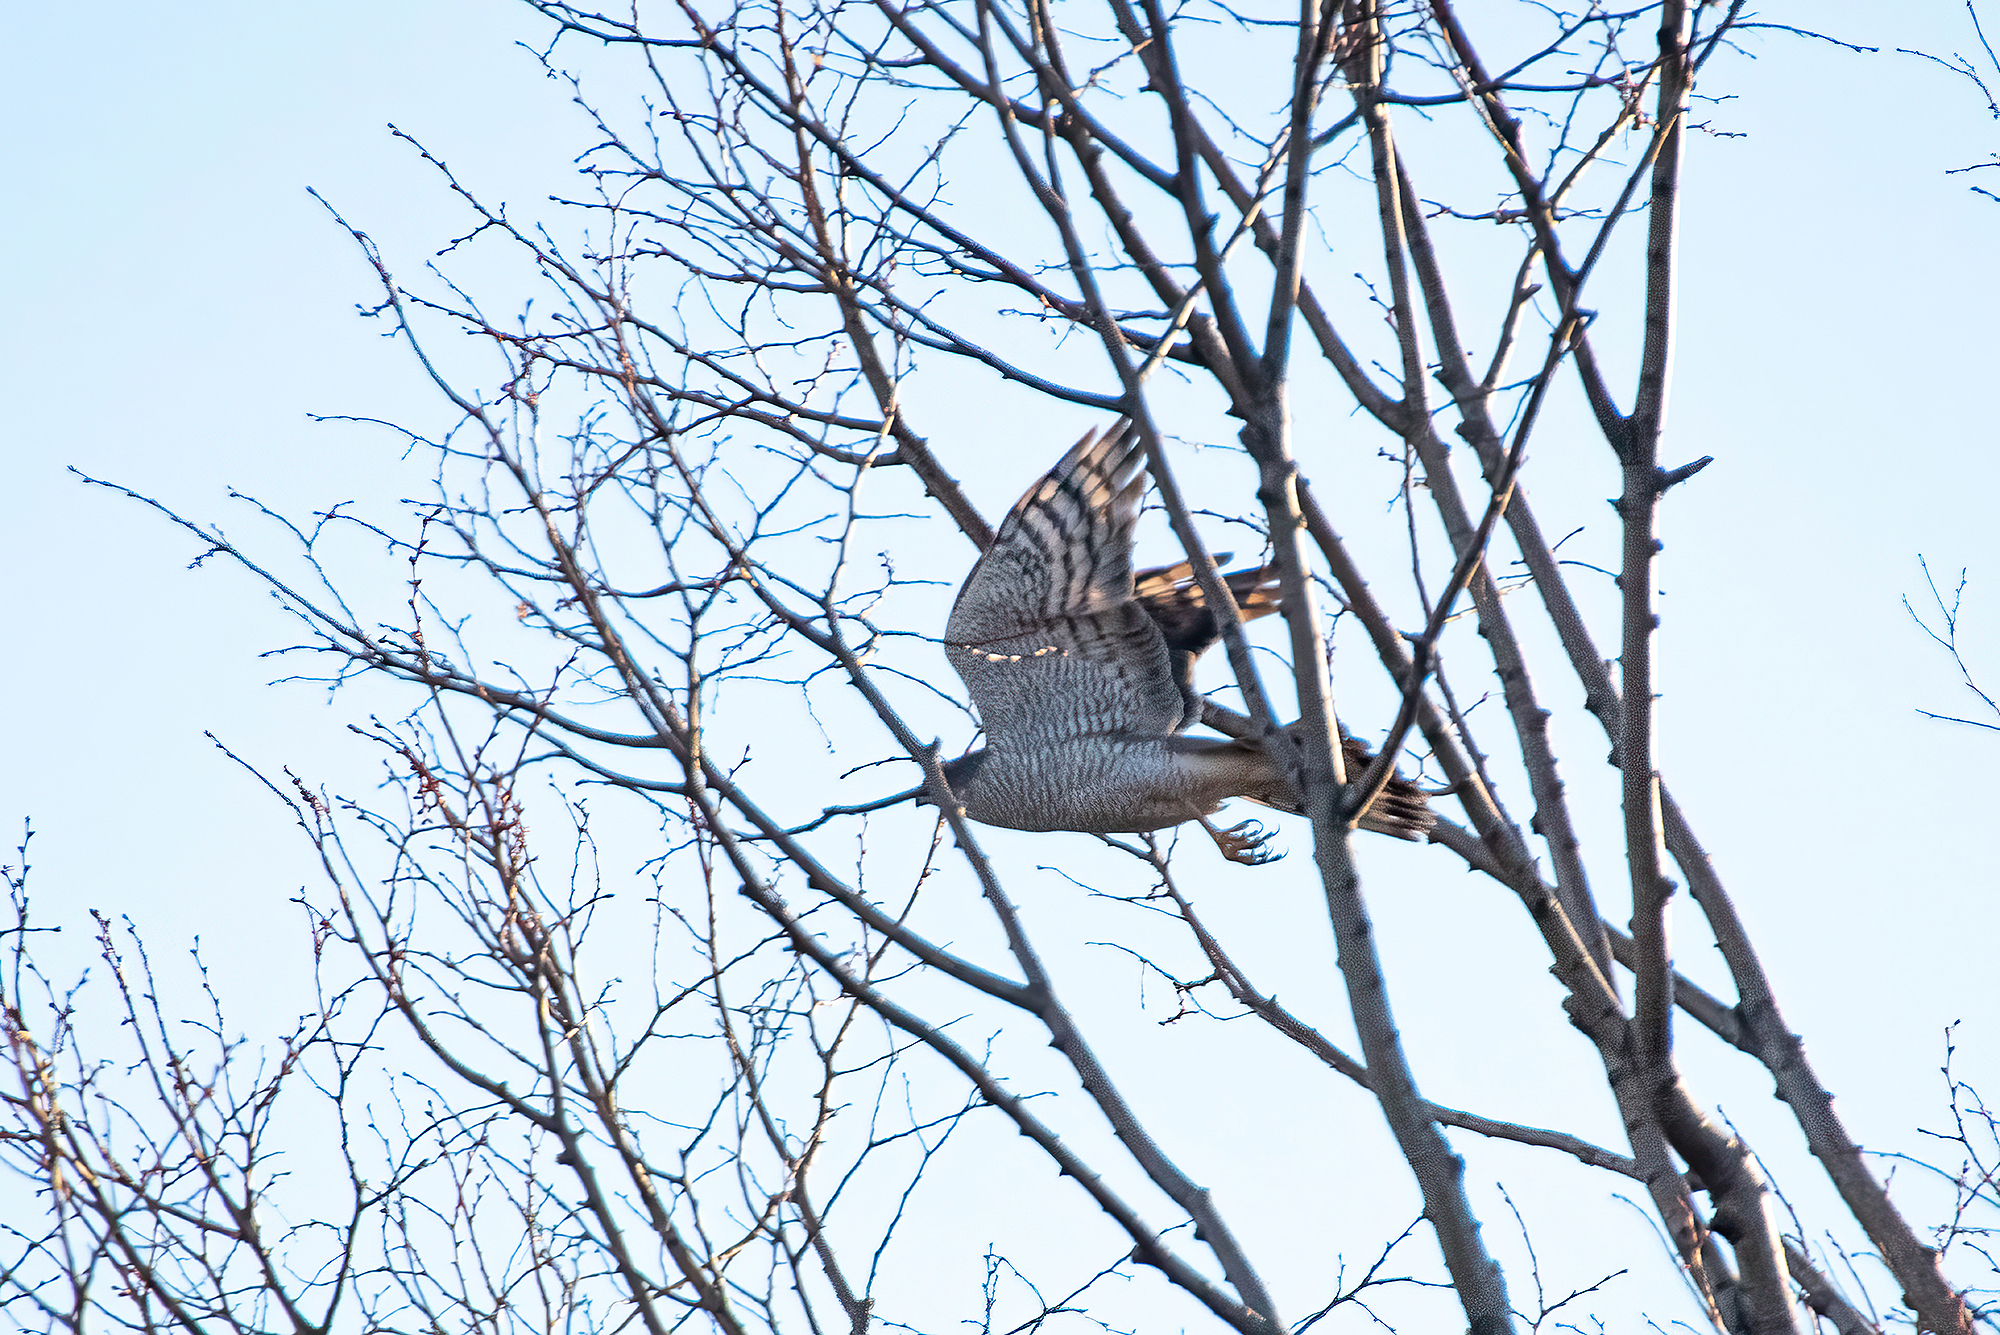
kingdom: Animalia
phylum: Chordata
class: Aves
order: Accipitriformes
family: Accipitridae
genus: Accipiter
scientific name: Accipiter nisus
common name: Eurasian sparrowhawk
